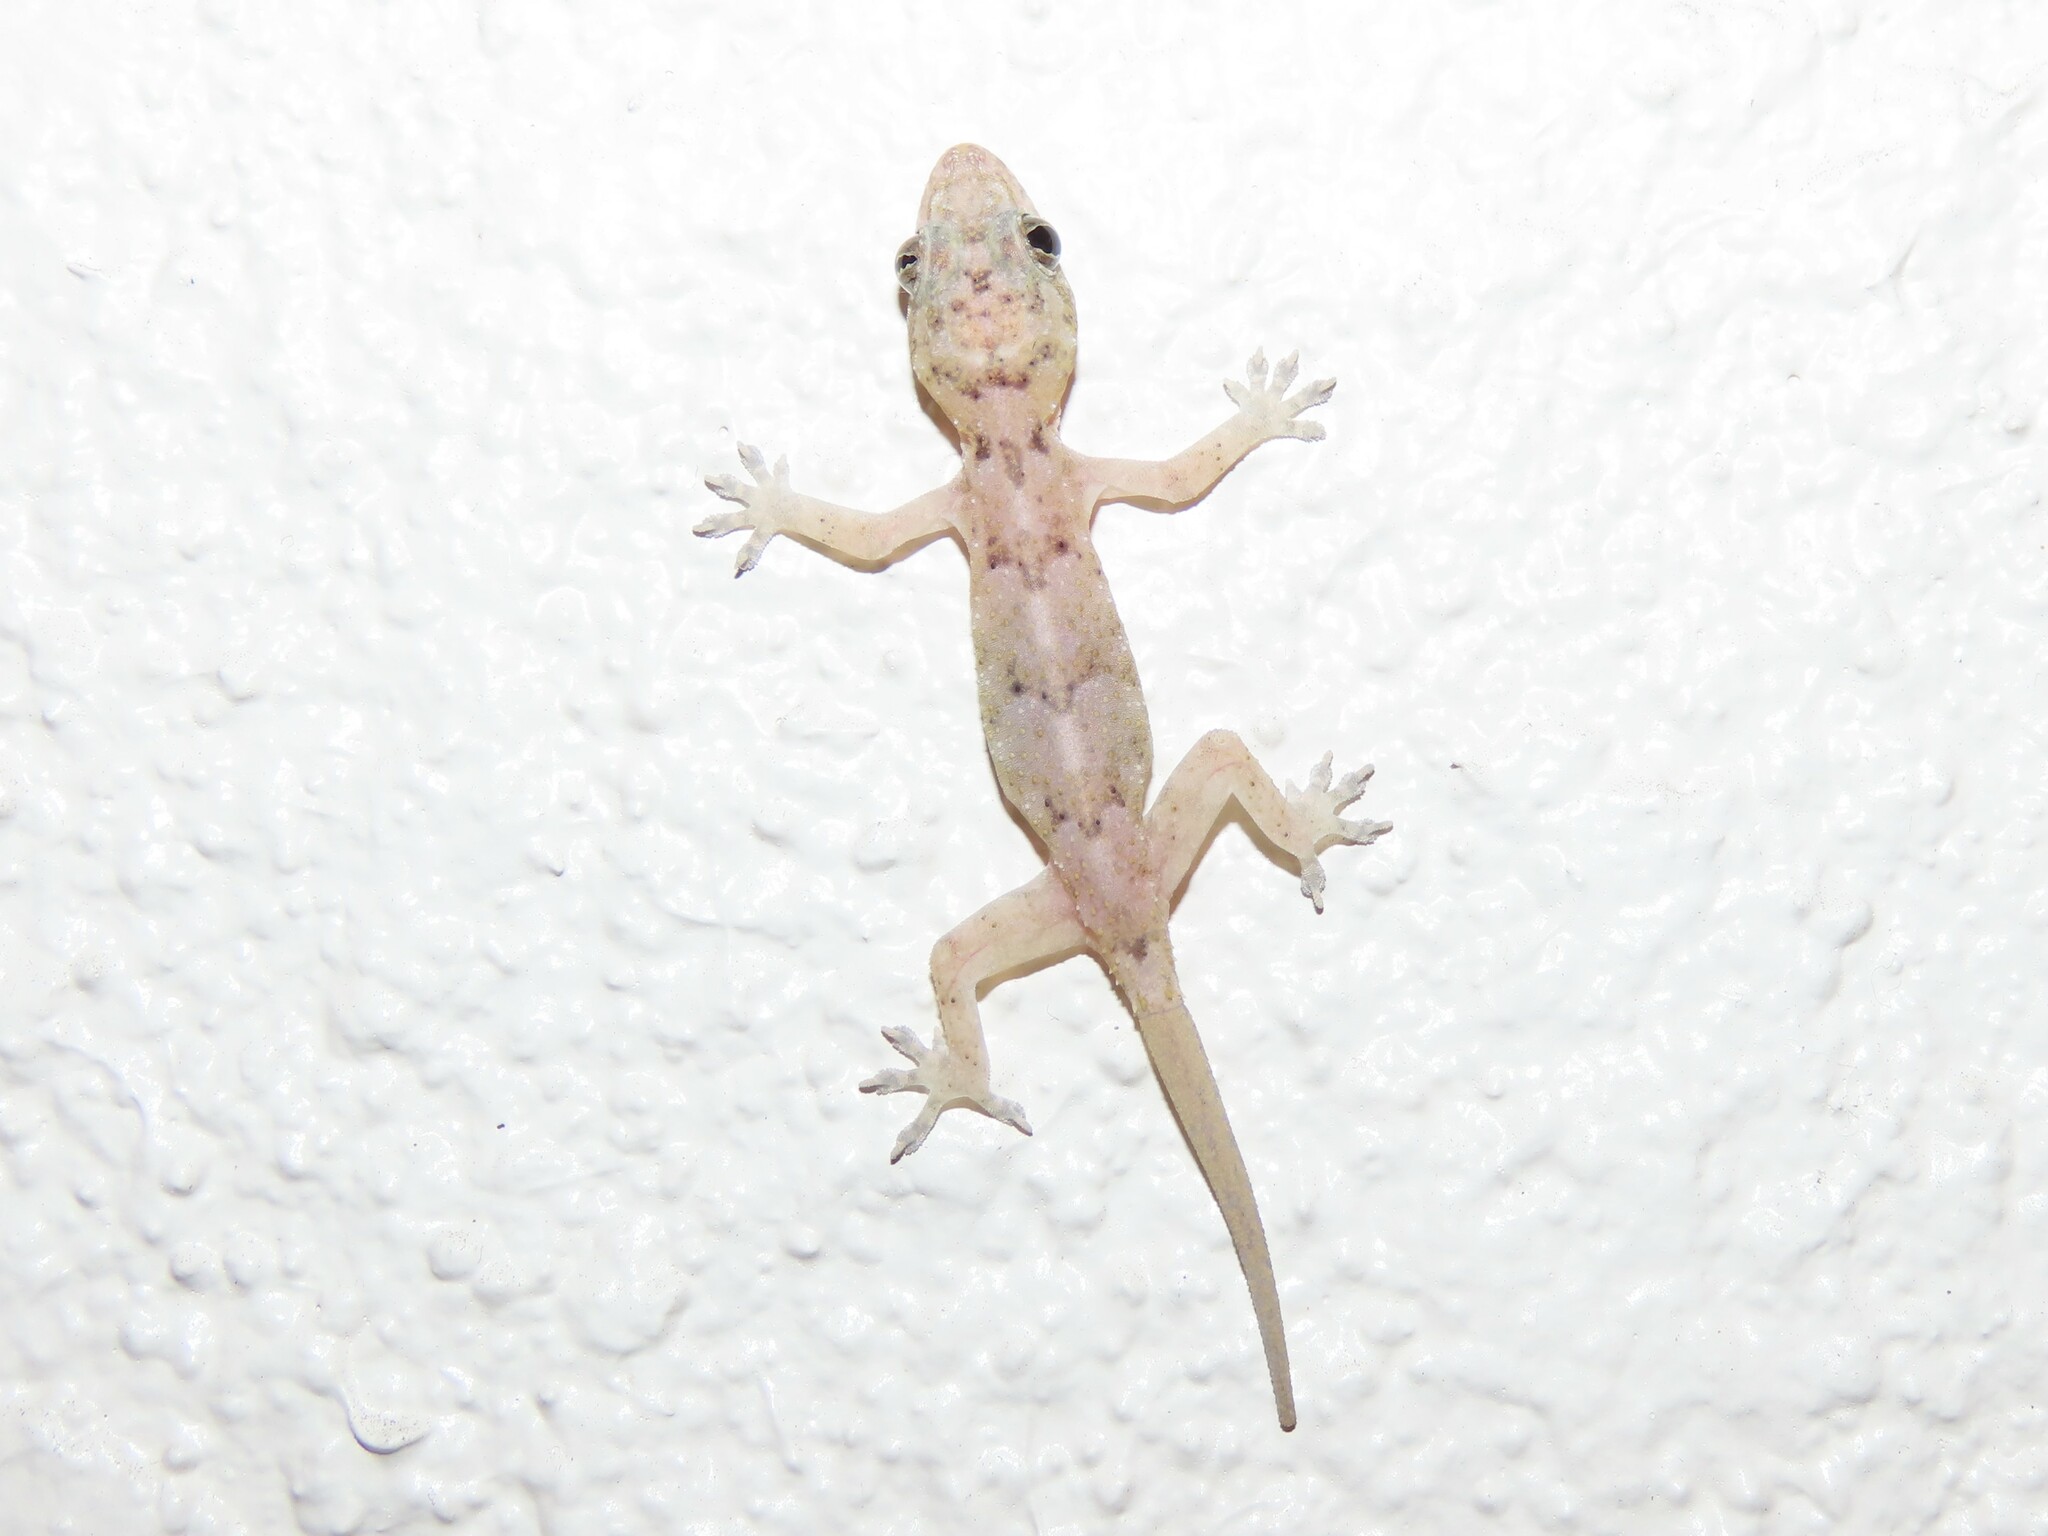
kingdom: Animalia
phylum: Chordata
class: Squamata
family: Gekkonidae
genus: Hemidactylus
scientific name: Hemidactylus mabouia
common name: House gecko
